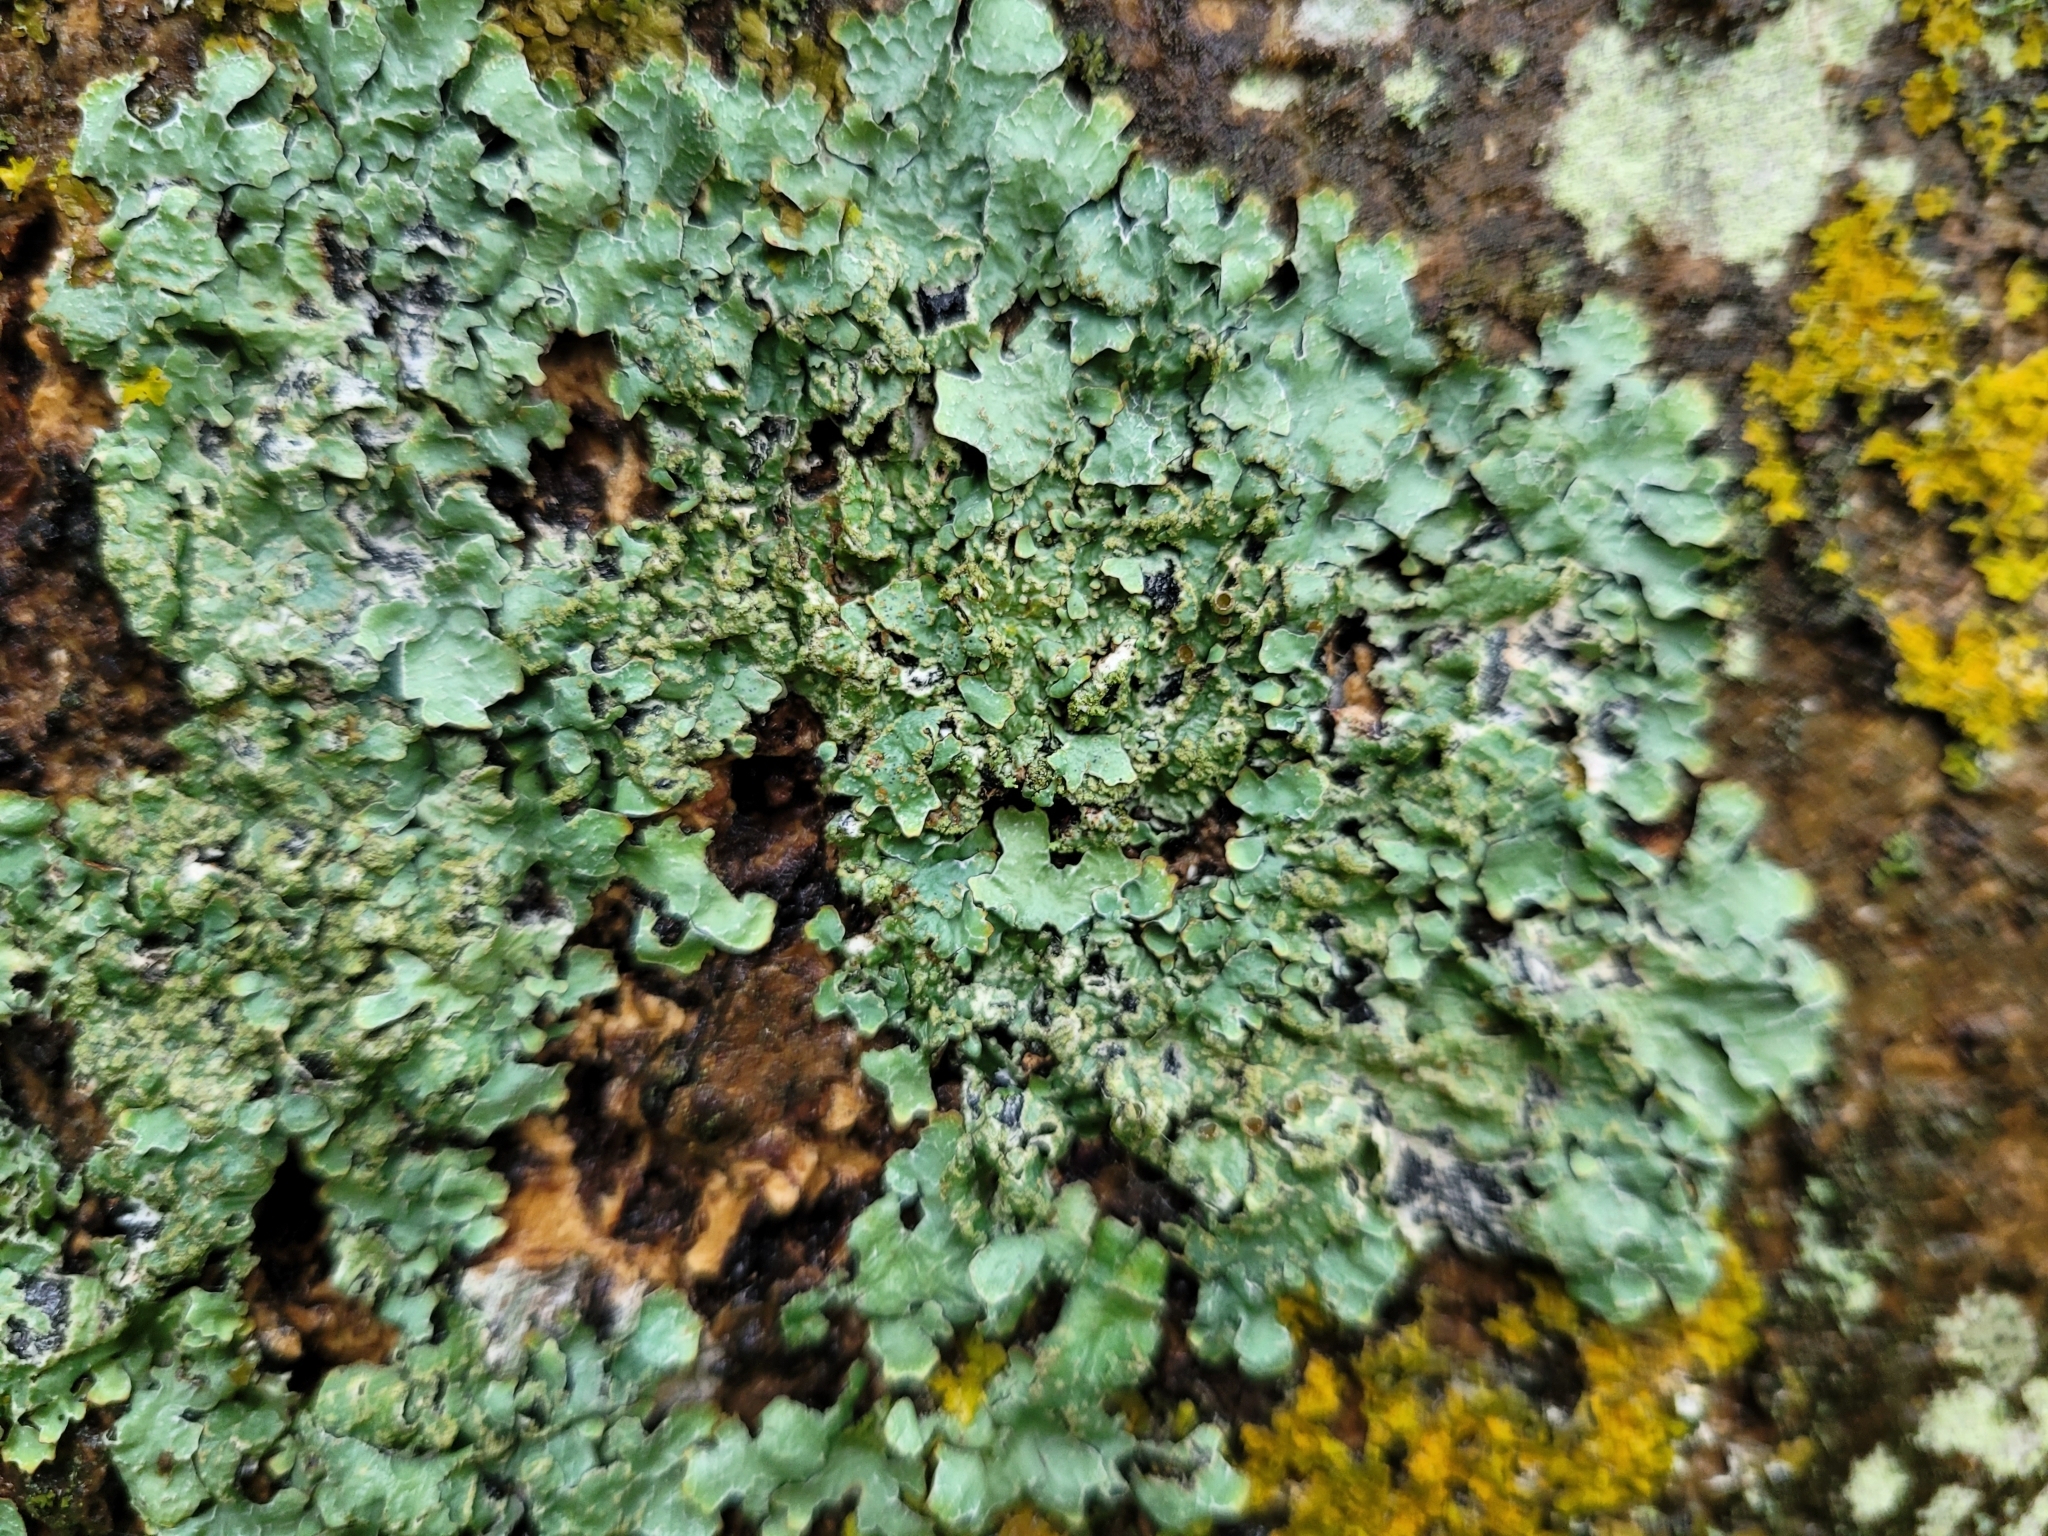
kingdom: Fungi
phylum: Ascomycota
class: Lecanoromycetes
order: Lecanorales
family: Parmeliaceae
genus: Parmelia
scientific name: Parmelia sulcata
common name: Netted shield lichen
